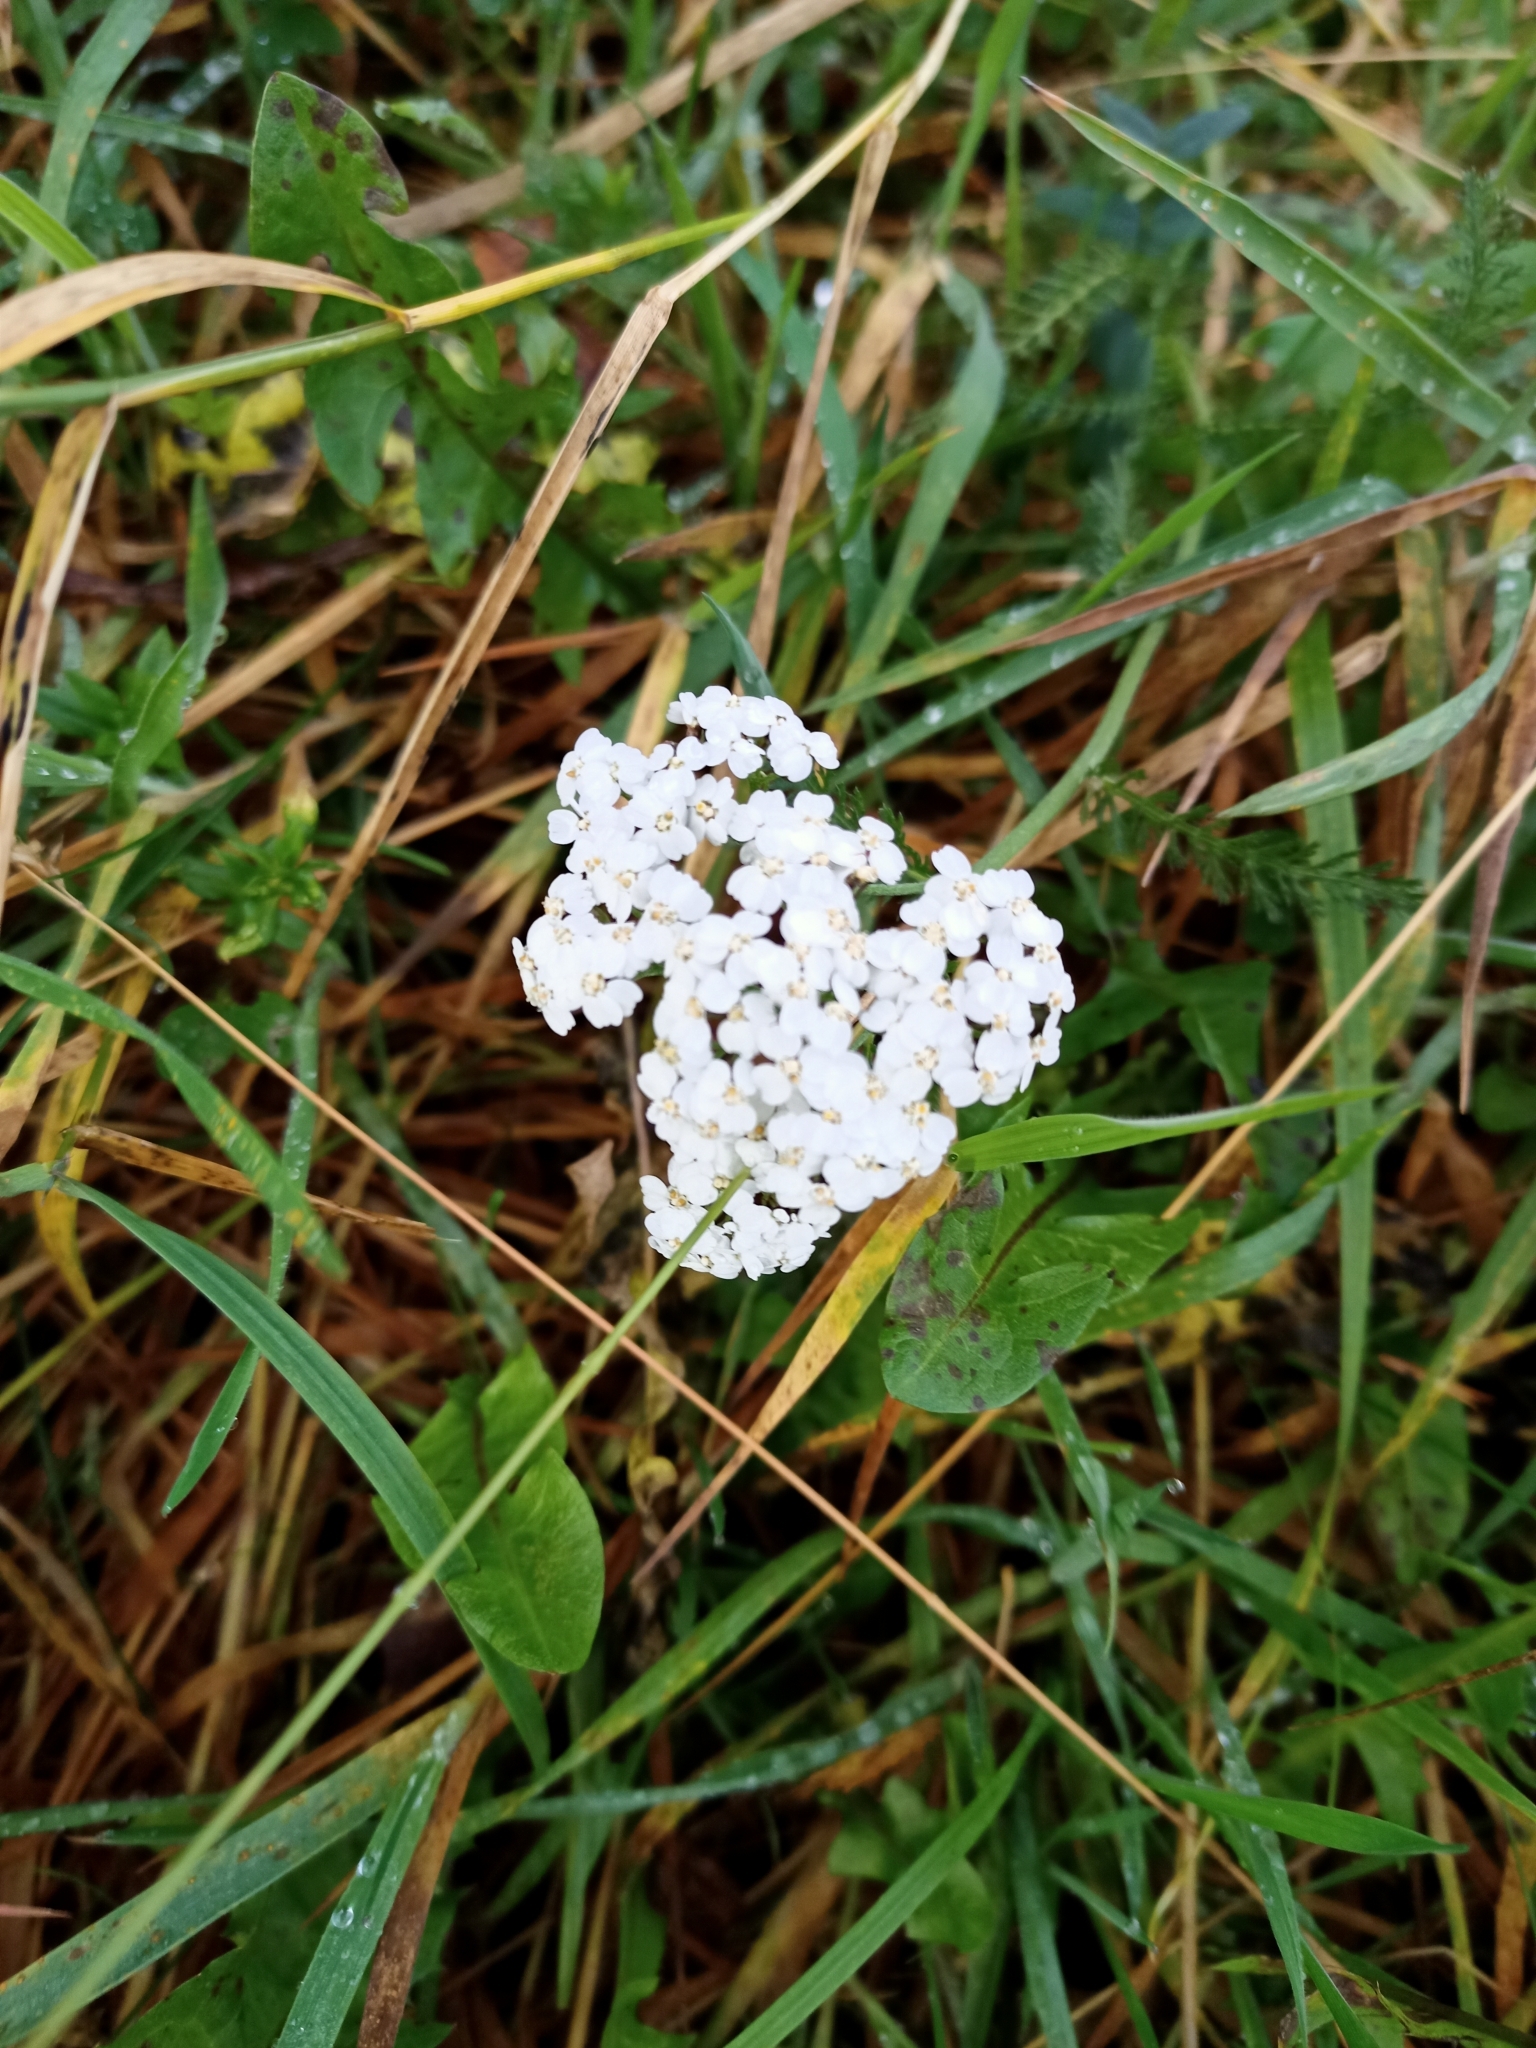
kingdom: Plantae
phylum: Tracheophyta
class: Magnoliopsida
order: Asterales
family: Asteraceae
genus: Achillea
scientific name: Achillea millefolium
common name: Yarrow
